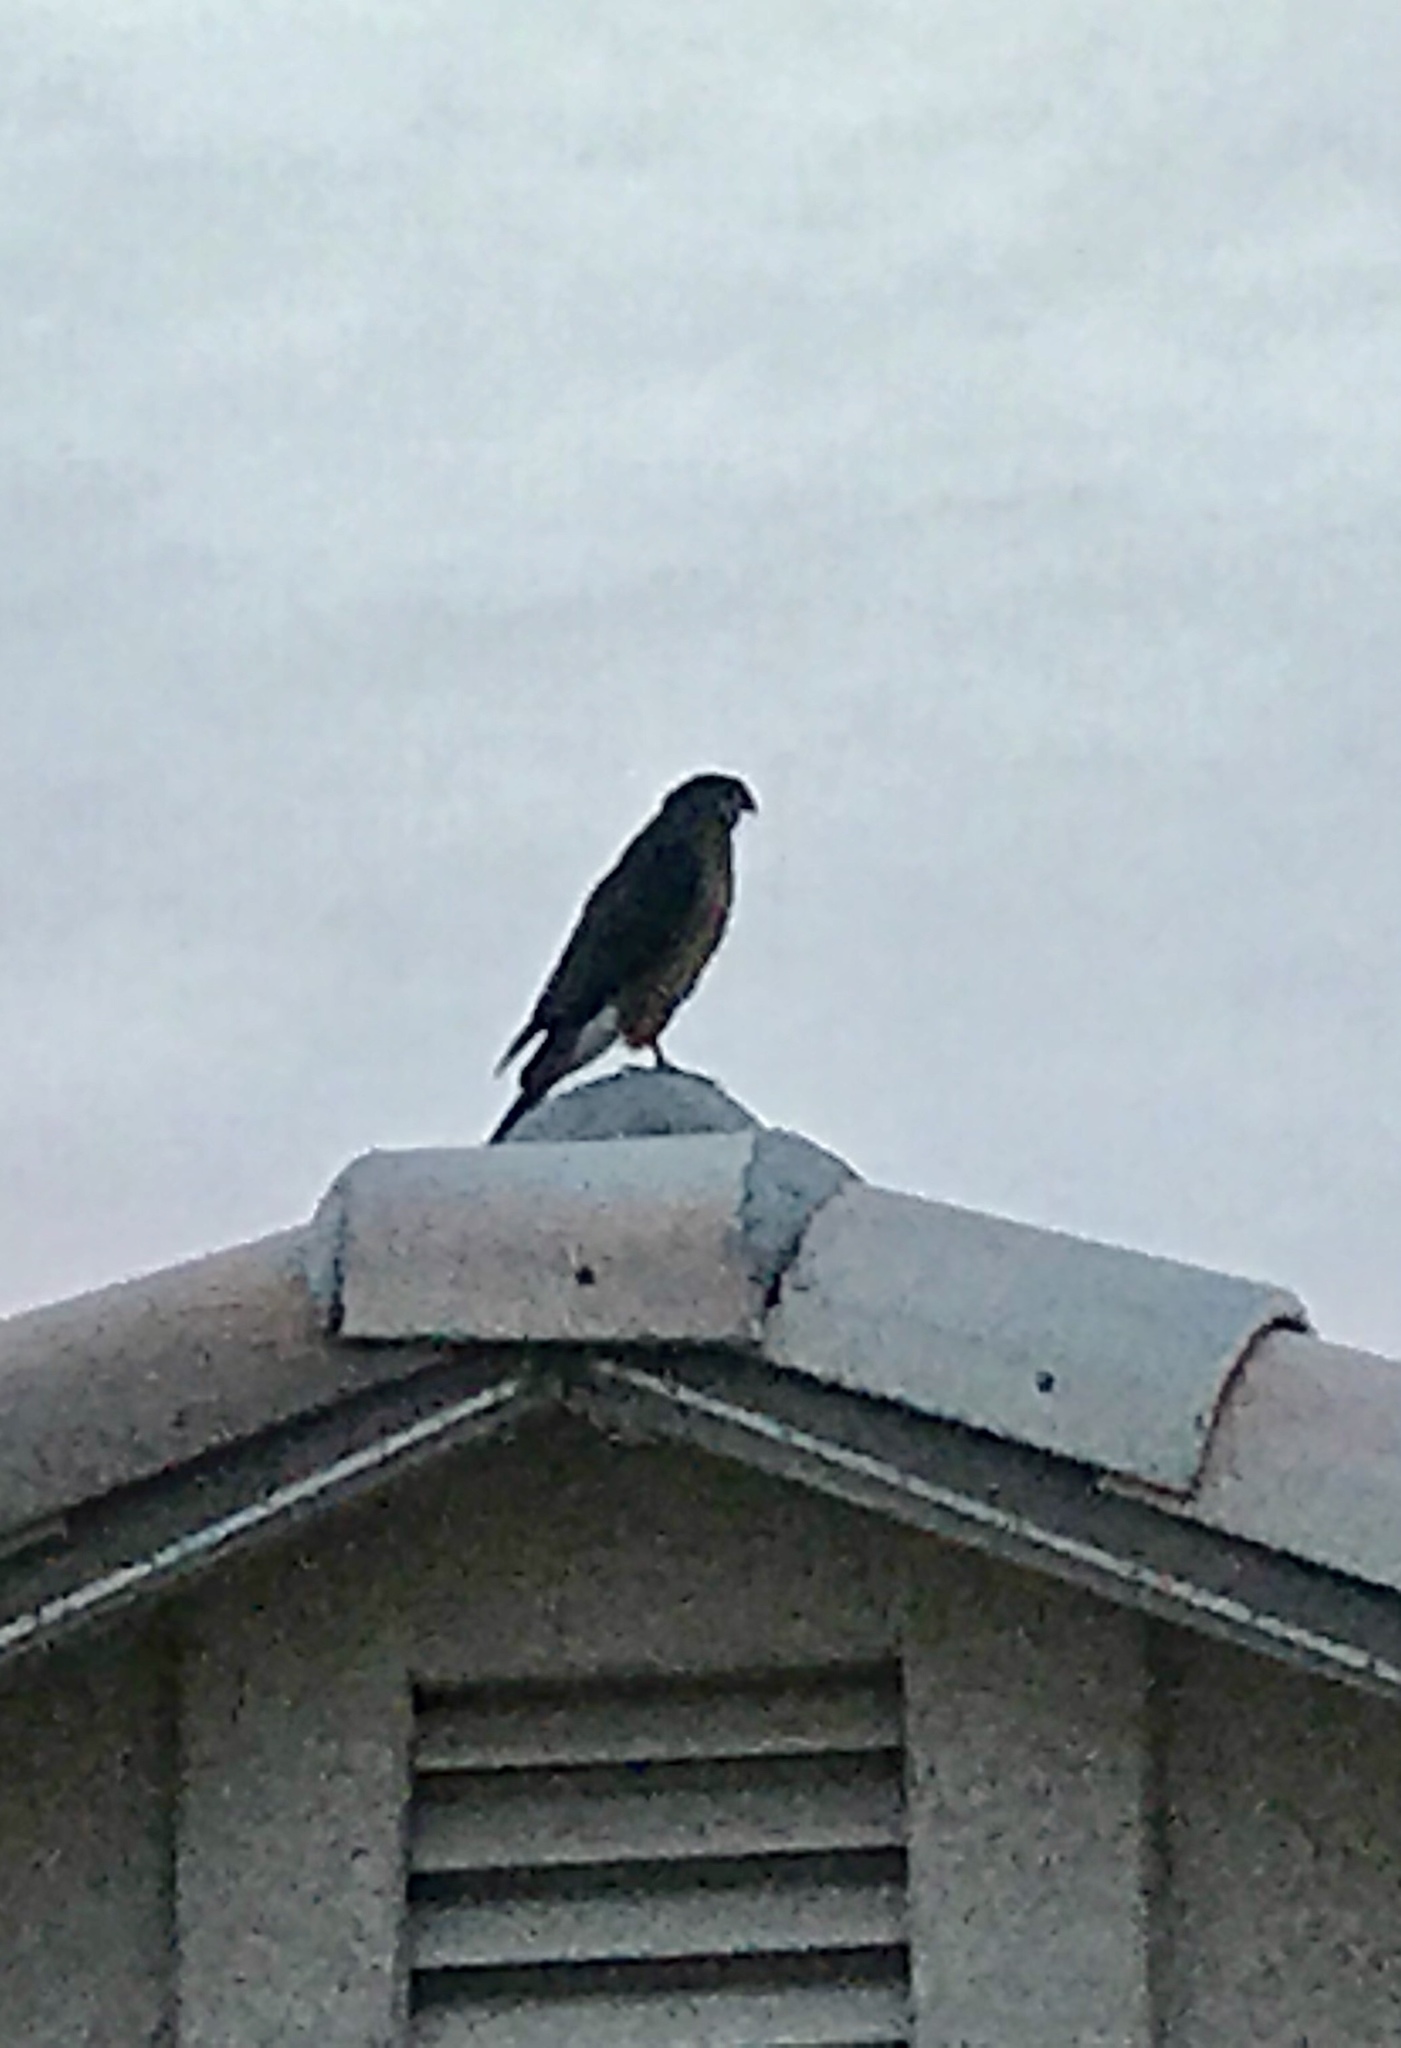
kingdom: Animalia
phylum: Chordata
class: Aves
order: Accipitriformes
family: Accipitridae
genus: Accipiter
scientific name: Accipiter cooperii
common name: Cooper's hawk
